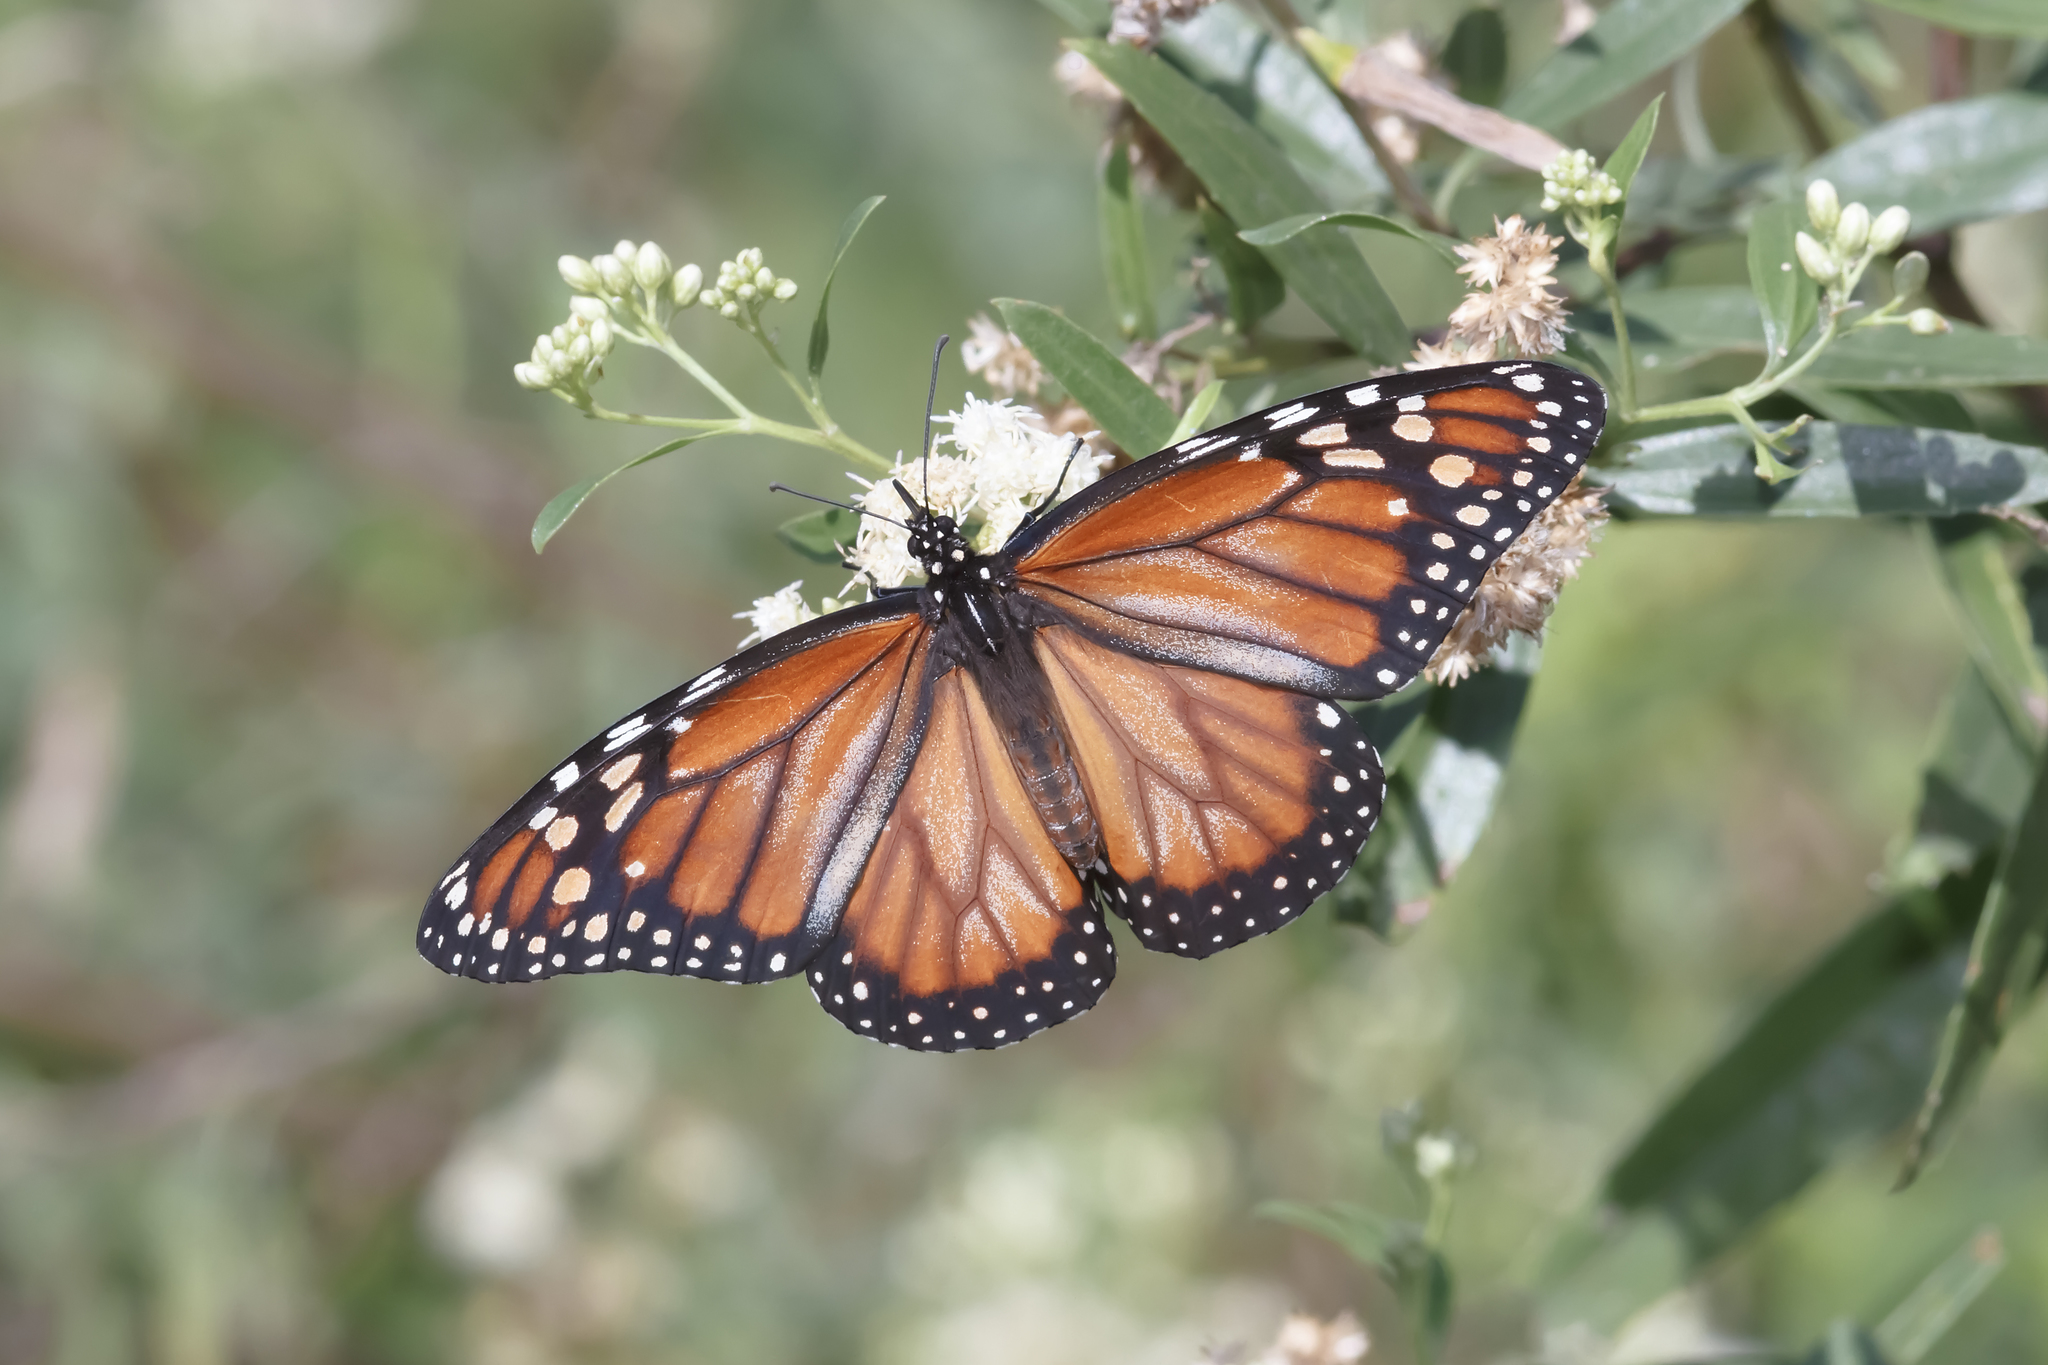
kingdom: Animalia
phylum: Arthropoda
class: Insecta
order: Lepidoptera
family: Nymphalidae
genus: Danaus
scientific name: Danaus erippus
